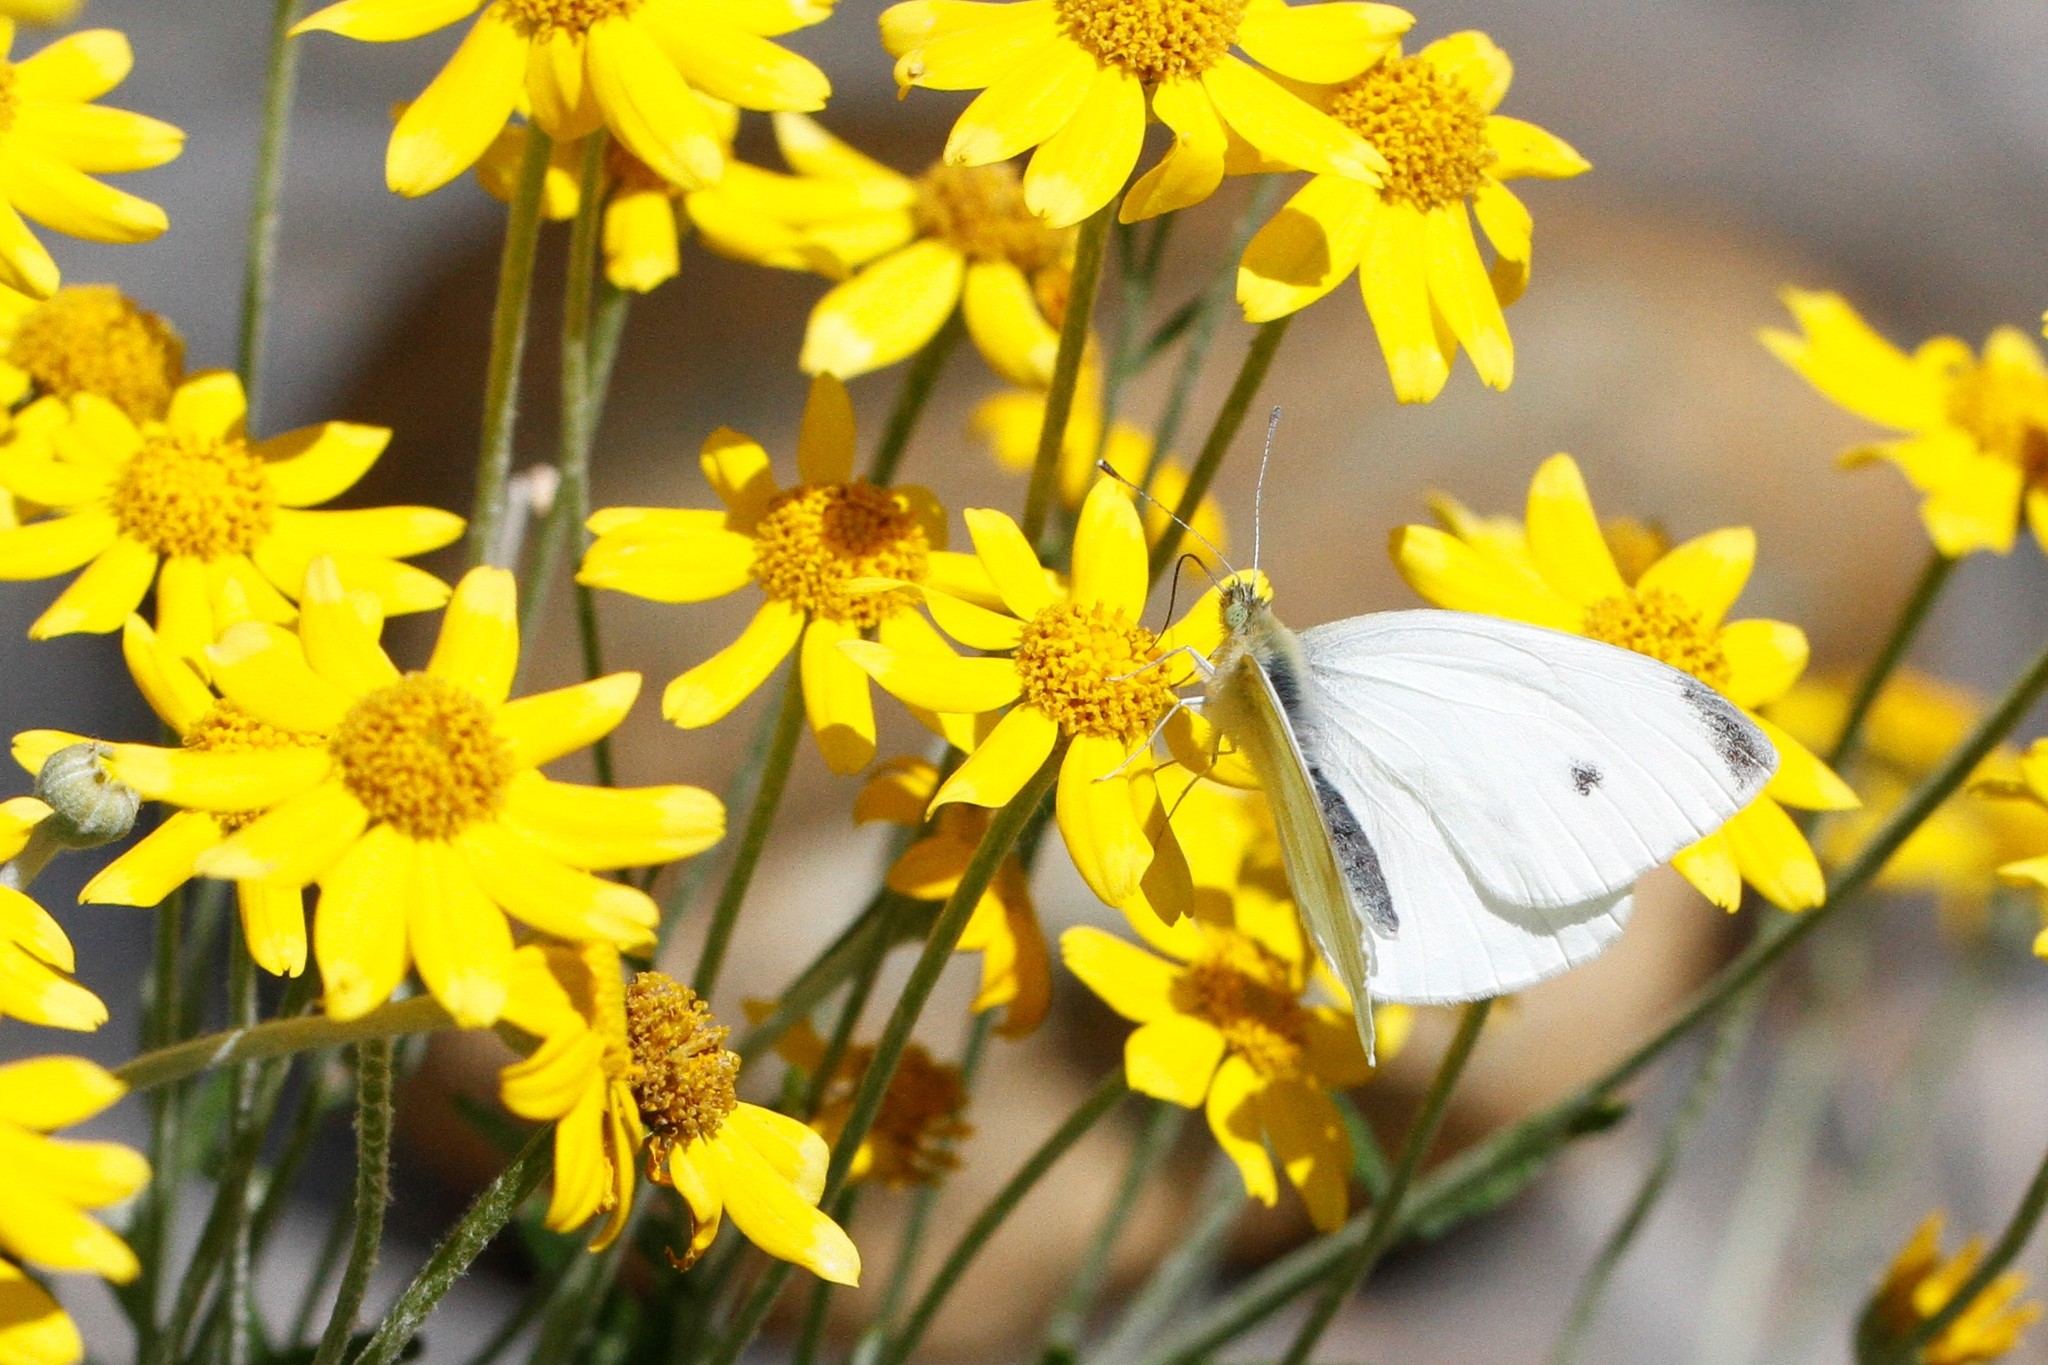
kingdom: Animalia
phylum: Arthropoda
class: Insecta
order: Lepidoptera
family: Pieridae
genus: Pieris
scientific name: Pieris rapae
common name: Small white
